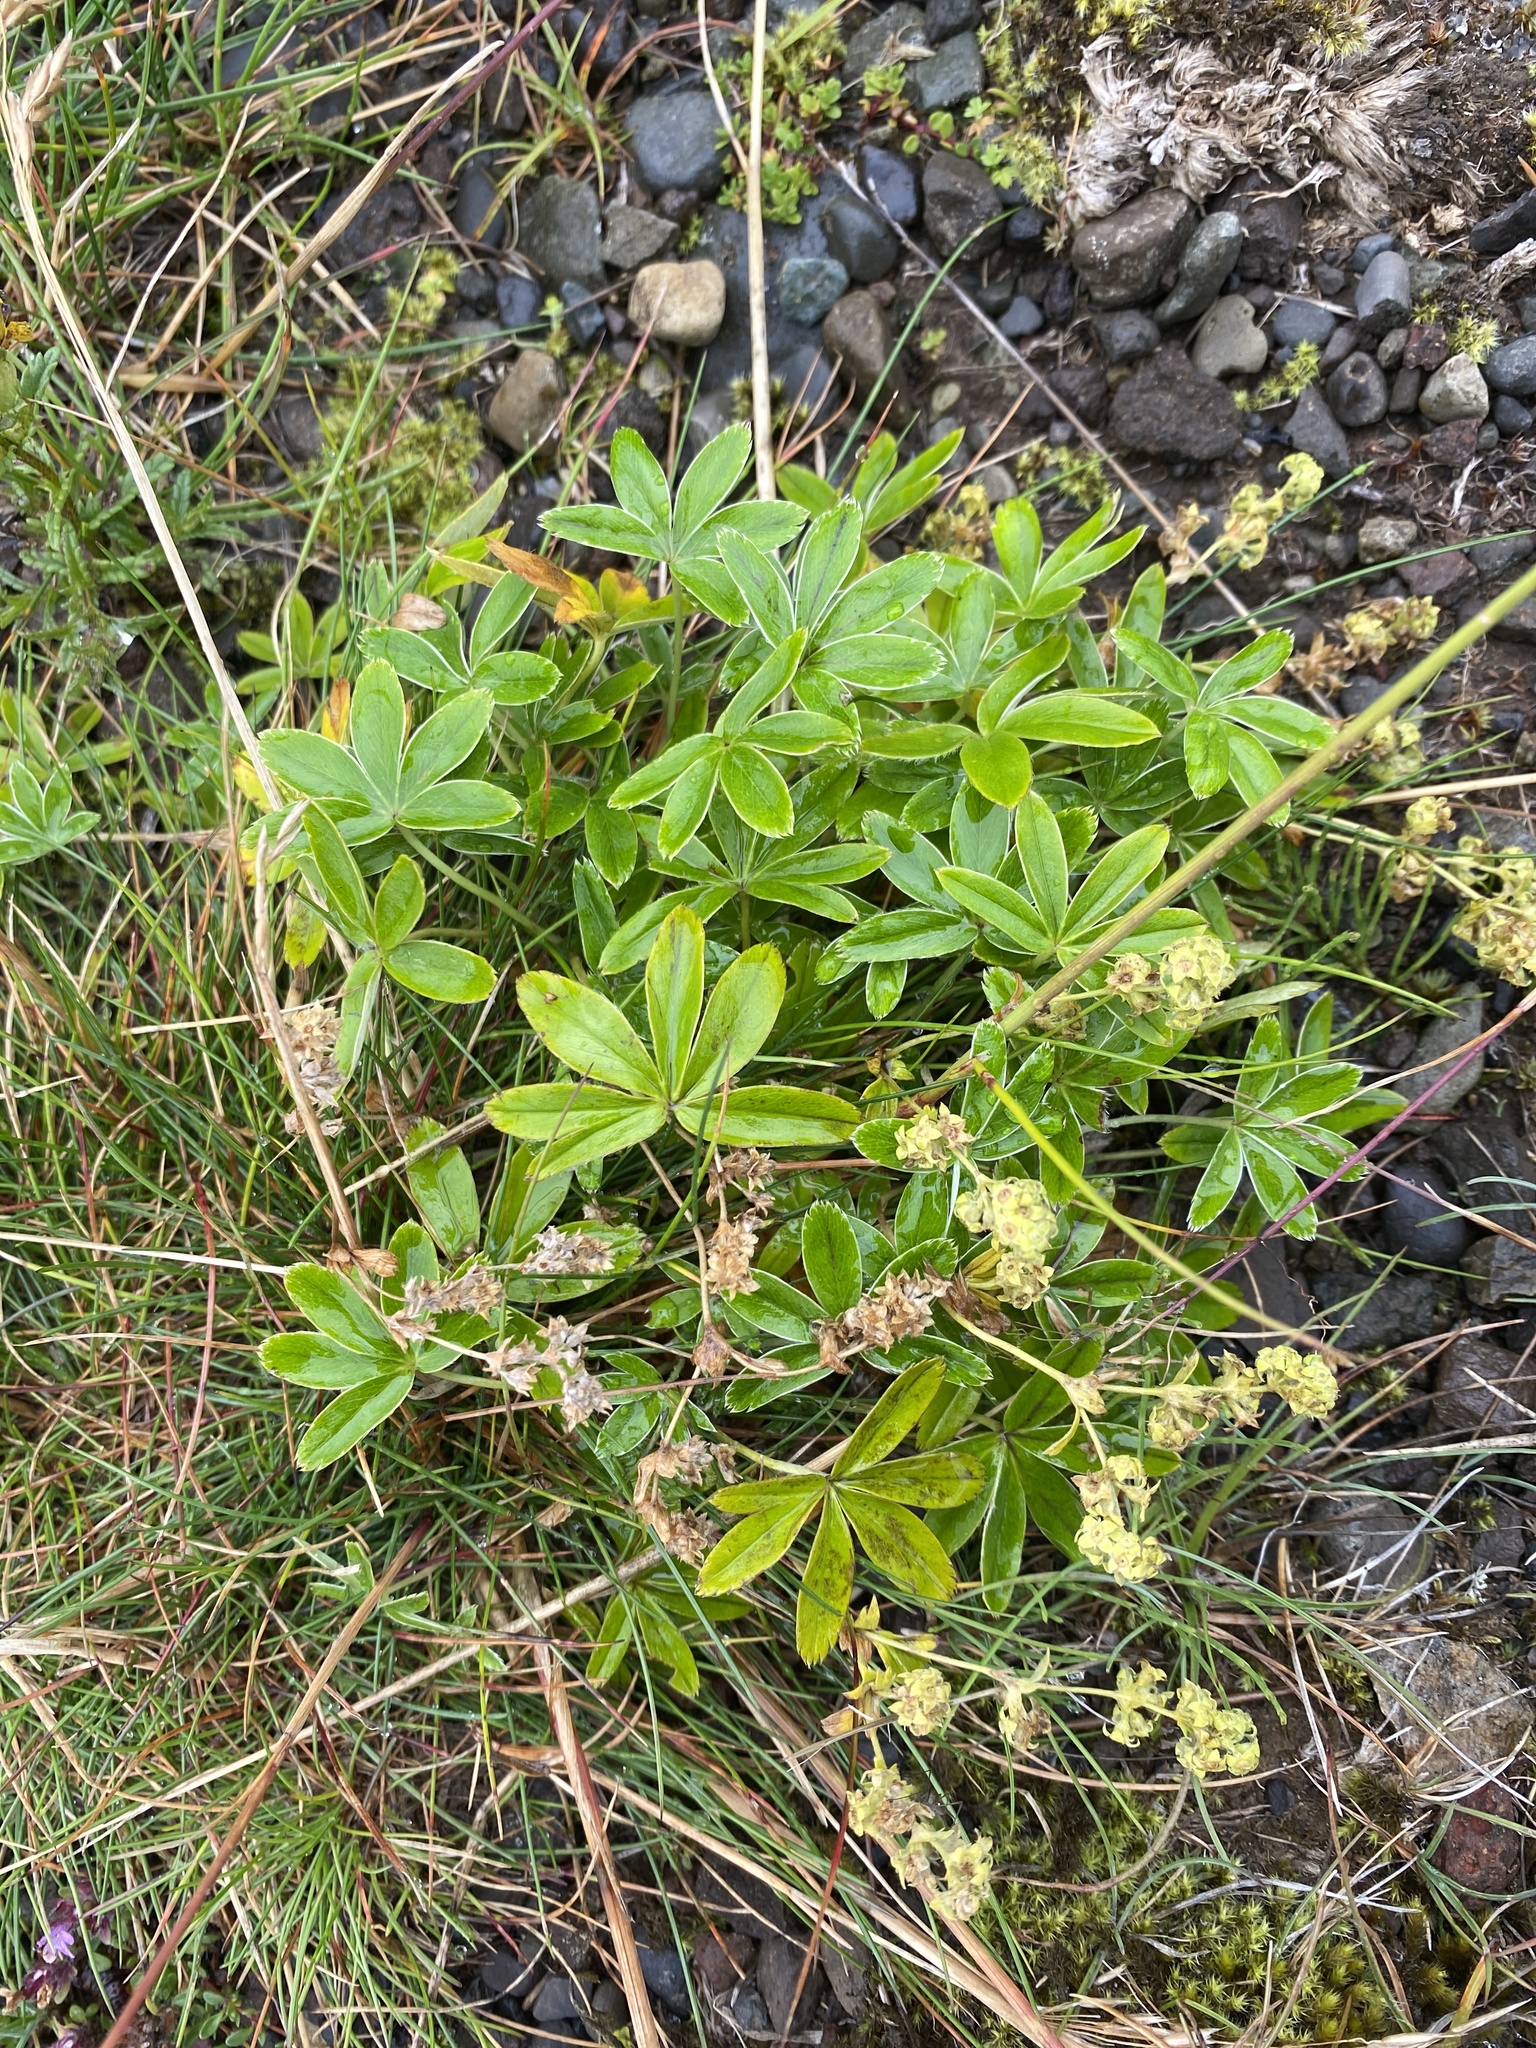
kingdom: Plantae
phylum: Tracheophyta
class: Magnoliopsida
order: Rosales
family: Rosaceae
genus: Alchemilla
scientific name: Alchemilla alpina
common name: Alpine lady's-mantle
